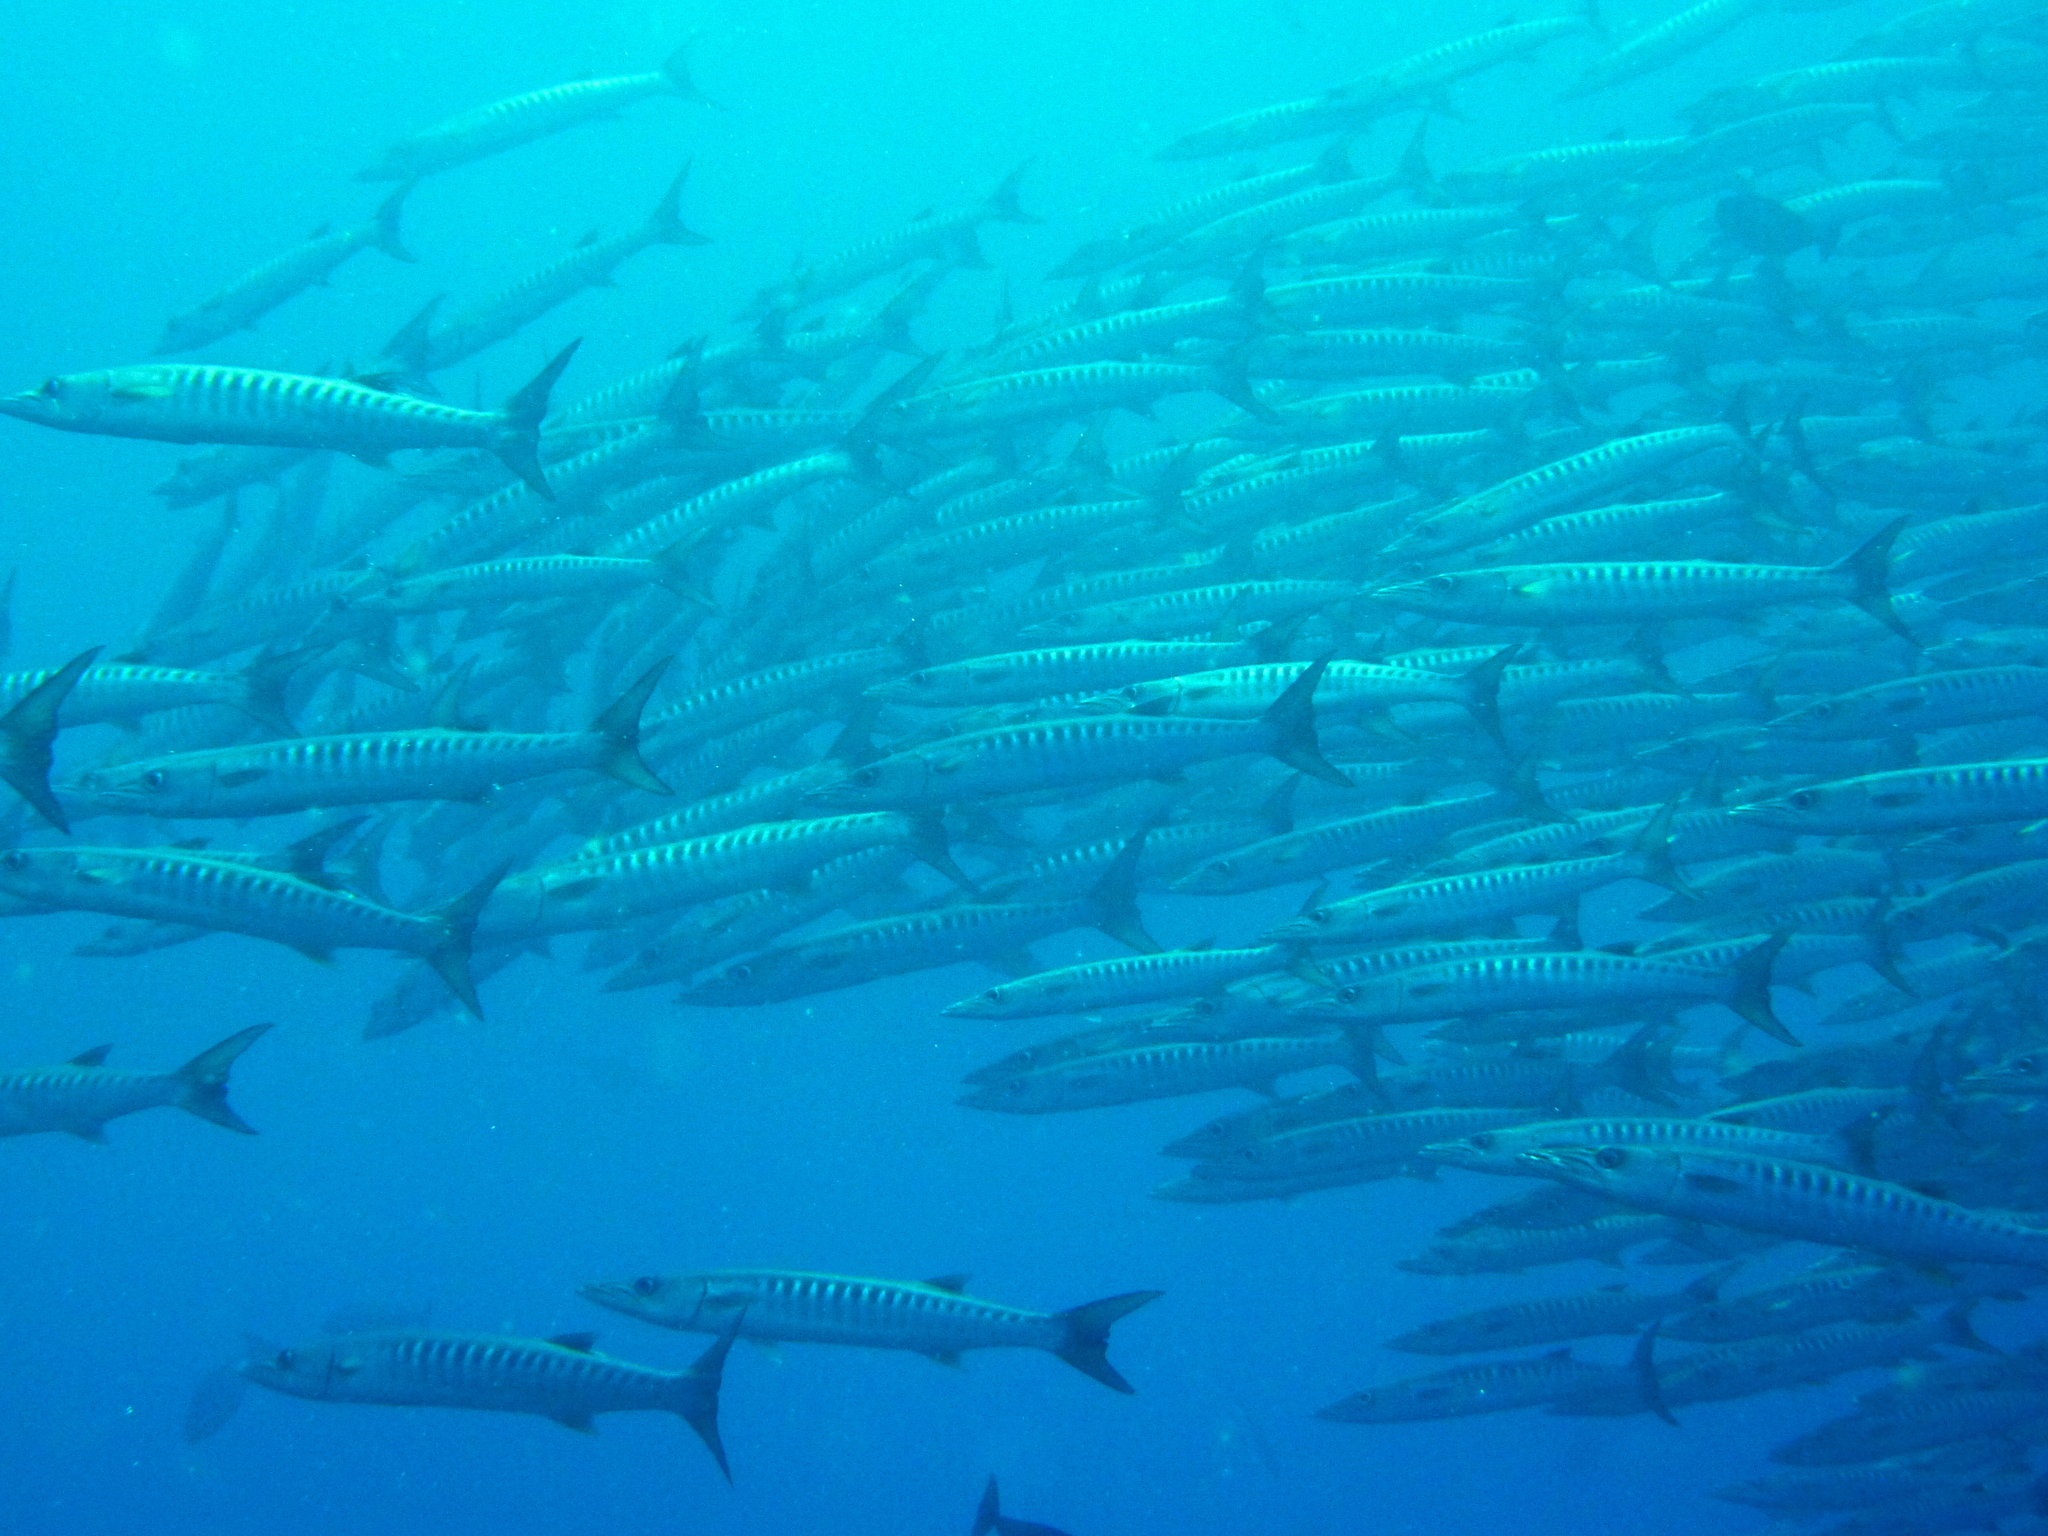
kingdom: Animalia
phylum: Chordata
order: Perciformes
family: Sphyraenidae
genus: Sphyraena
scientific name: Sphyraena qenie
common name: Blackfin barracuda
